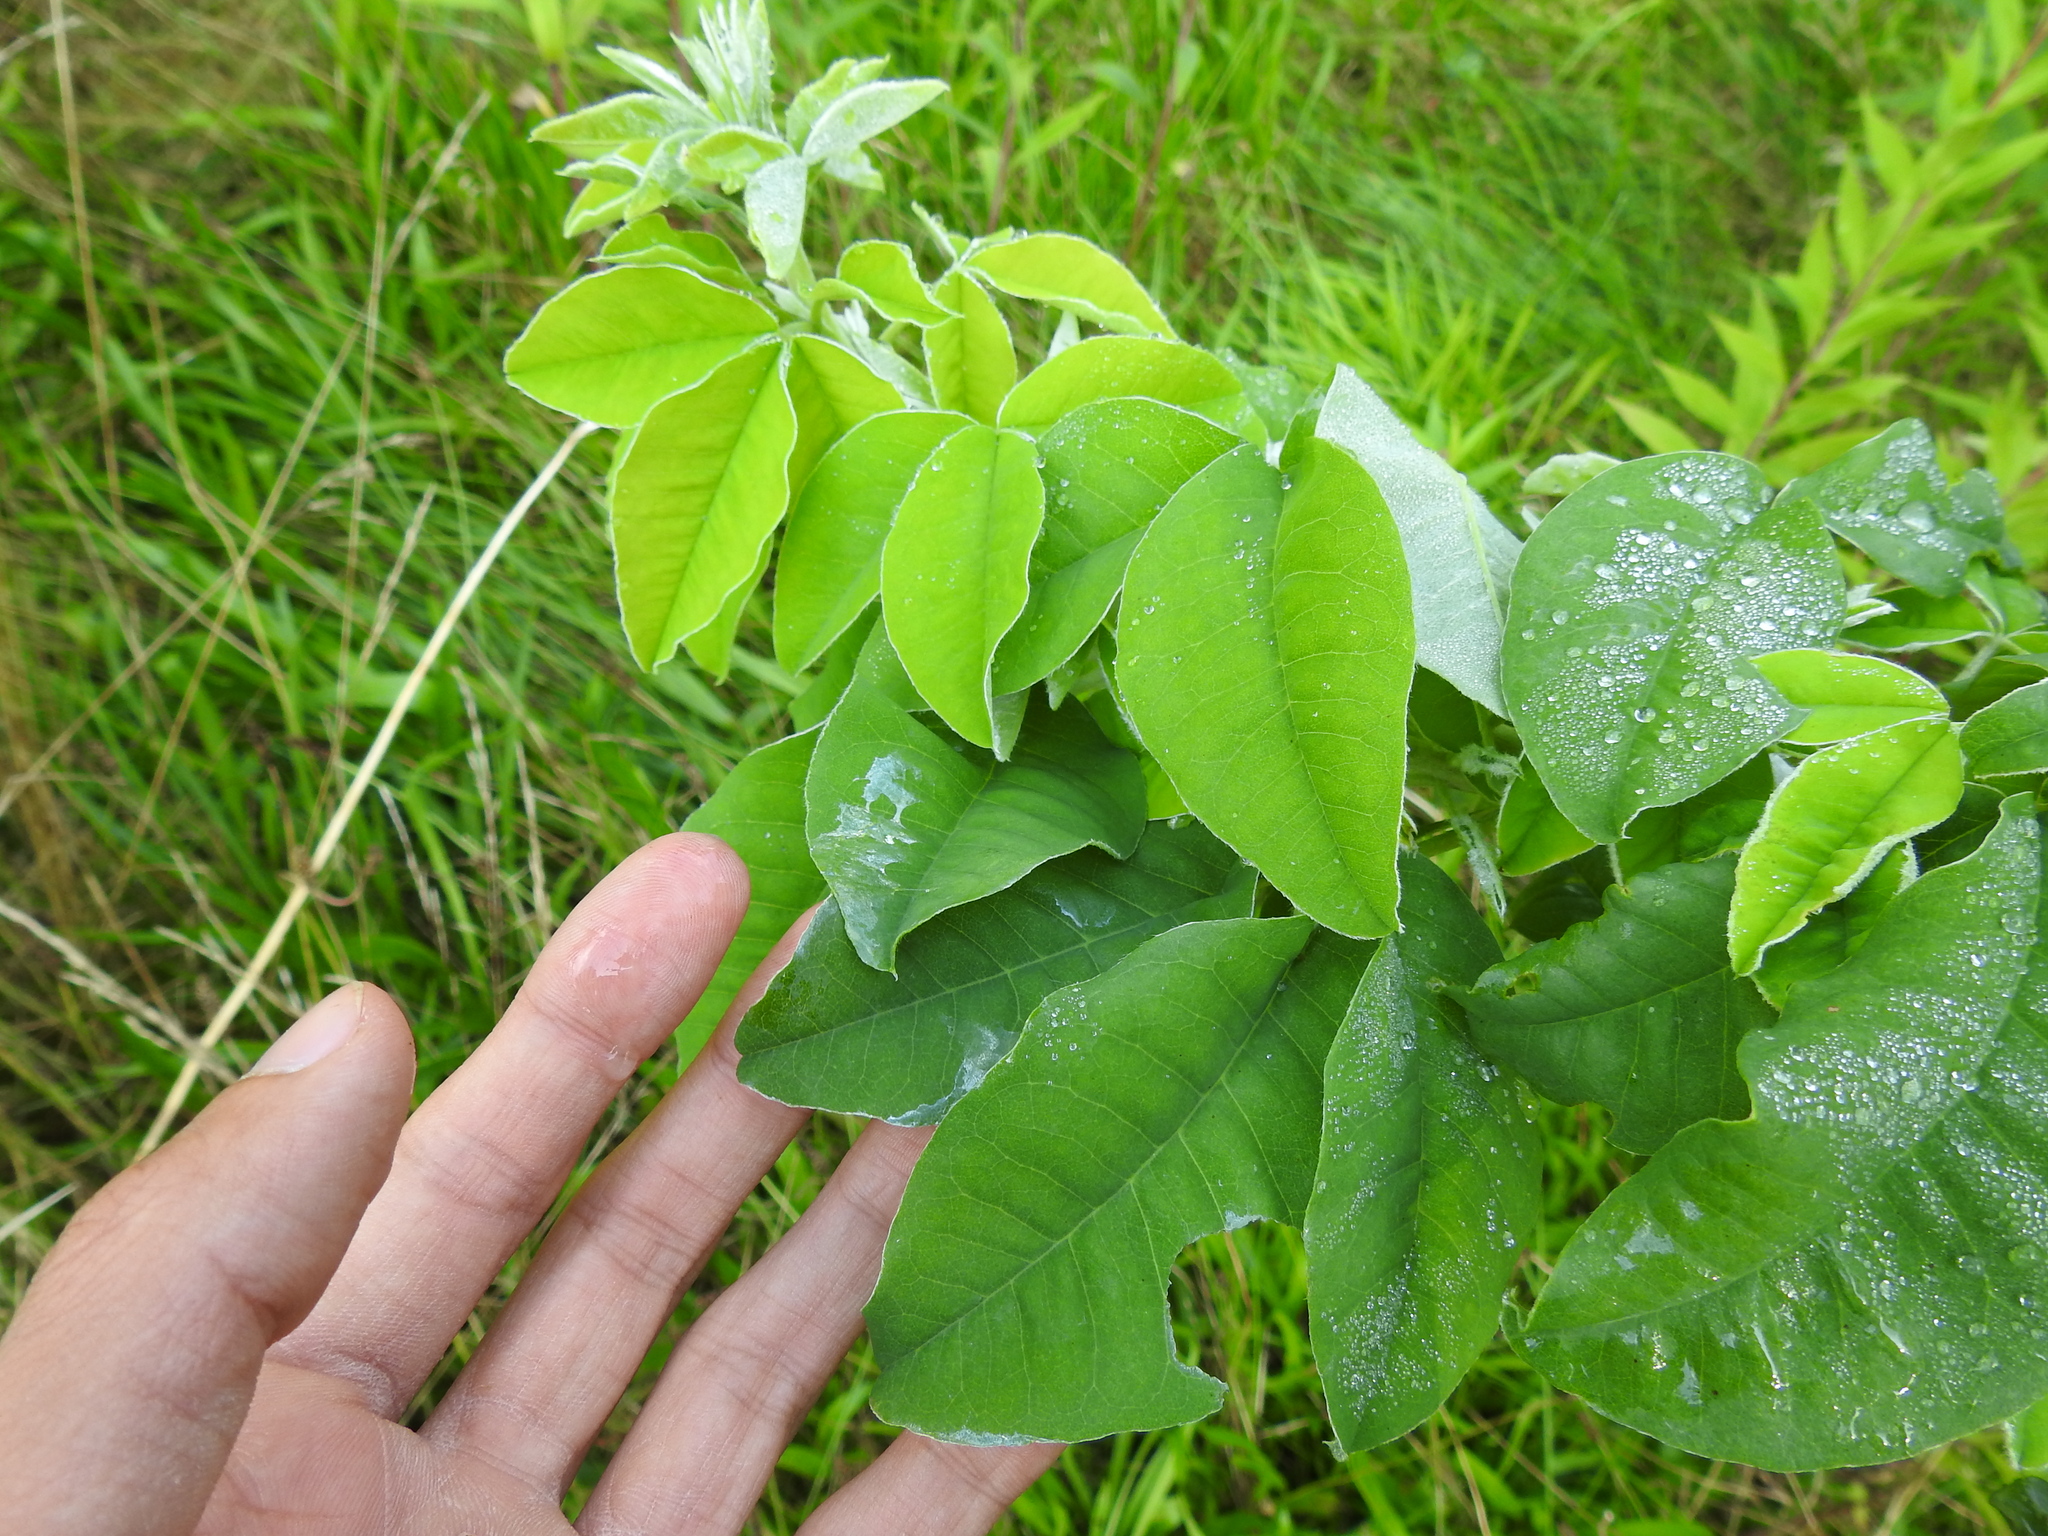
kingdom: Plantae
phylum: Tracheophyta
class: Magnoliopsida
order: Fabales
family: Fabaceae
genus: Laburnum
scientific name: Laburnum anagyroides
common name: Laburnum
